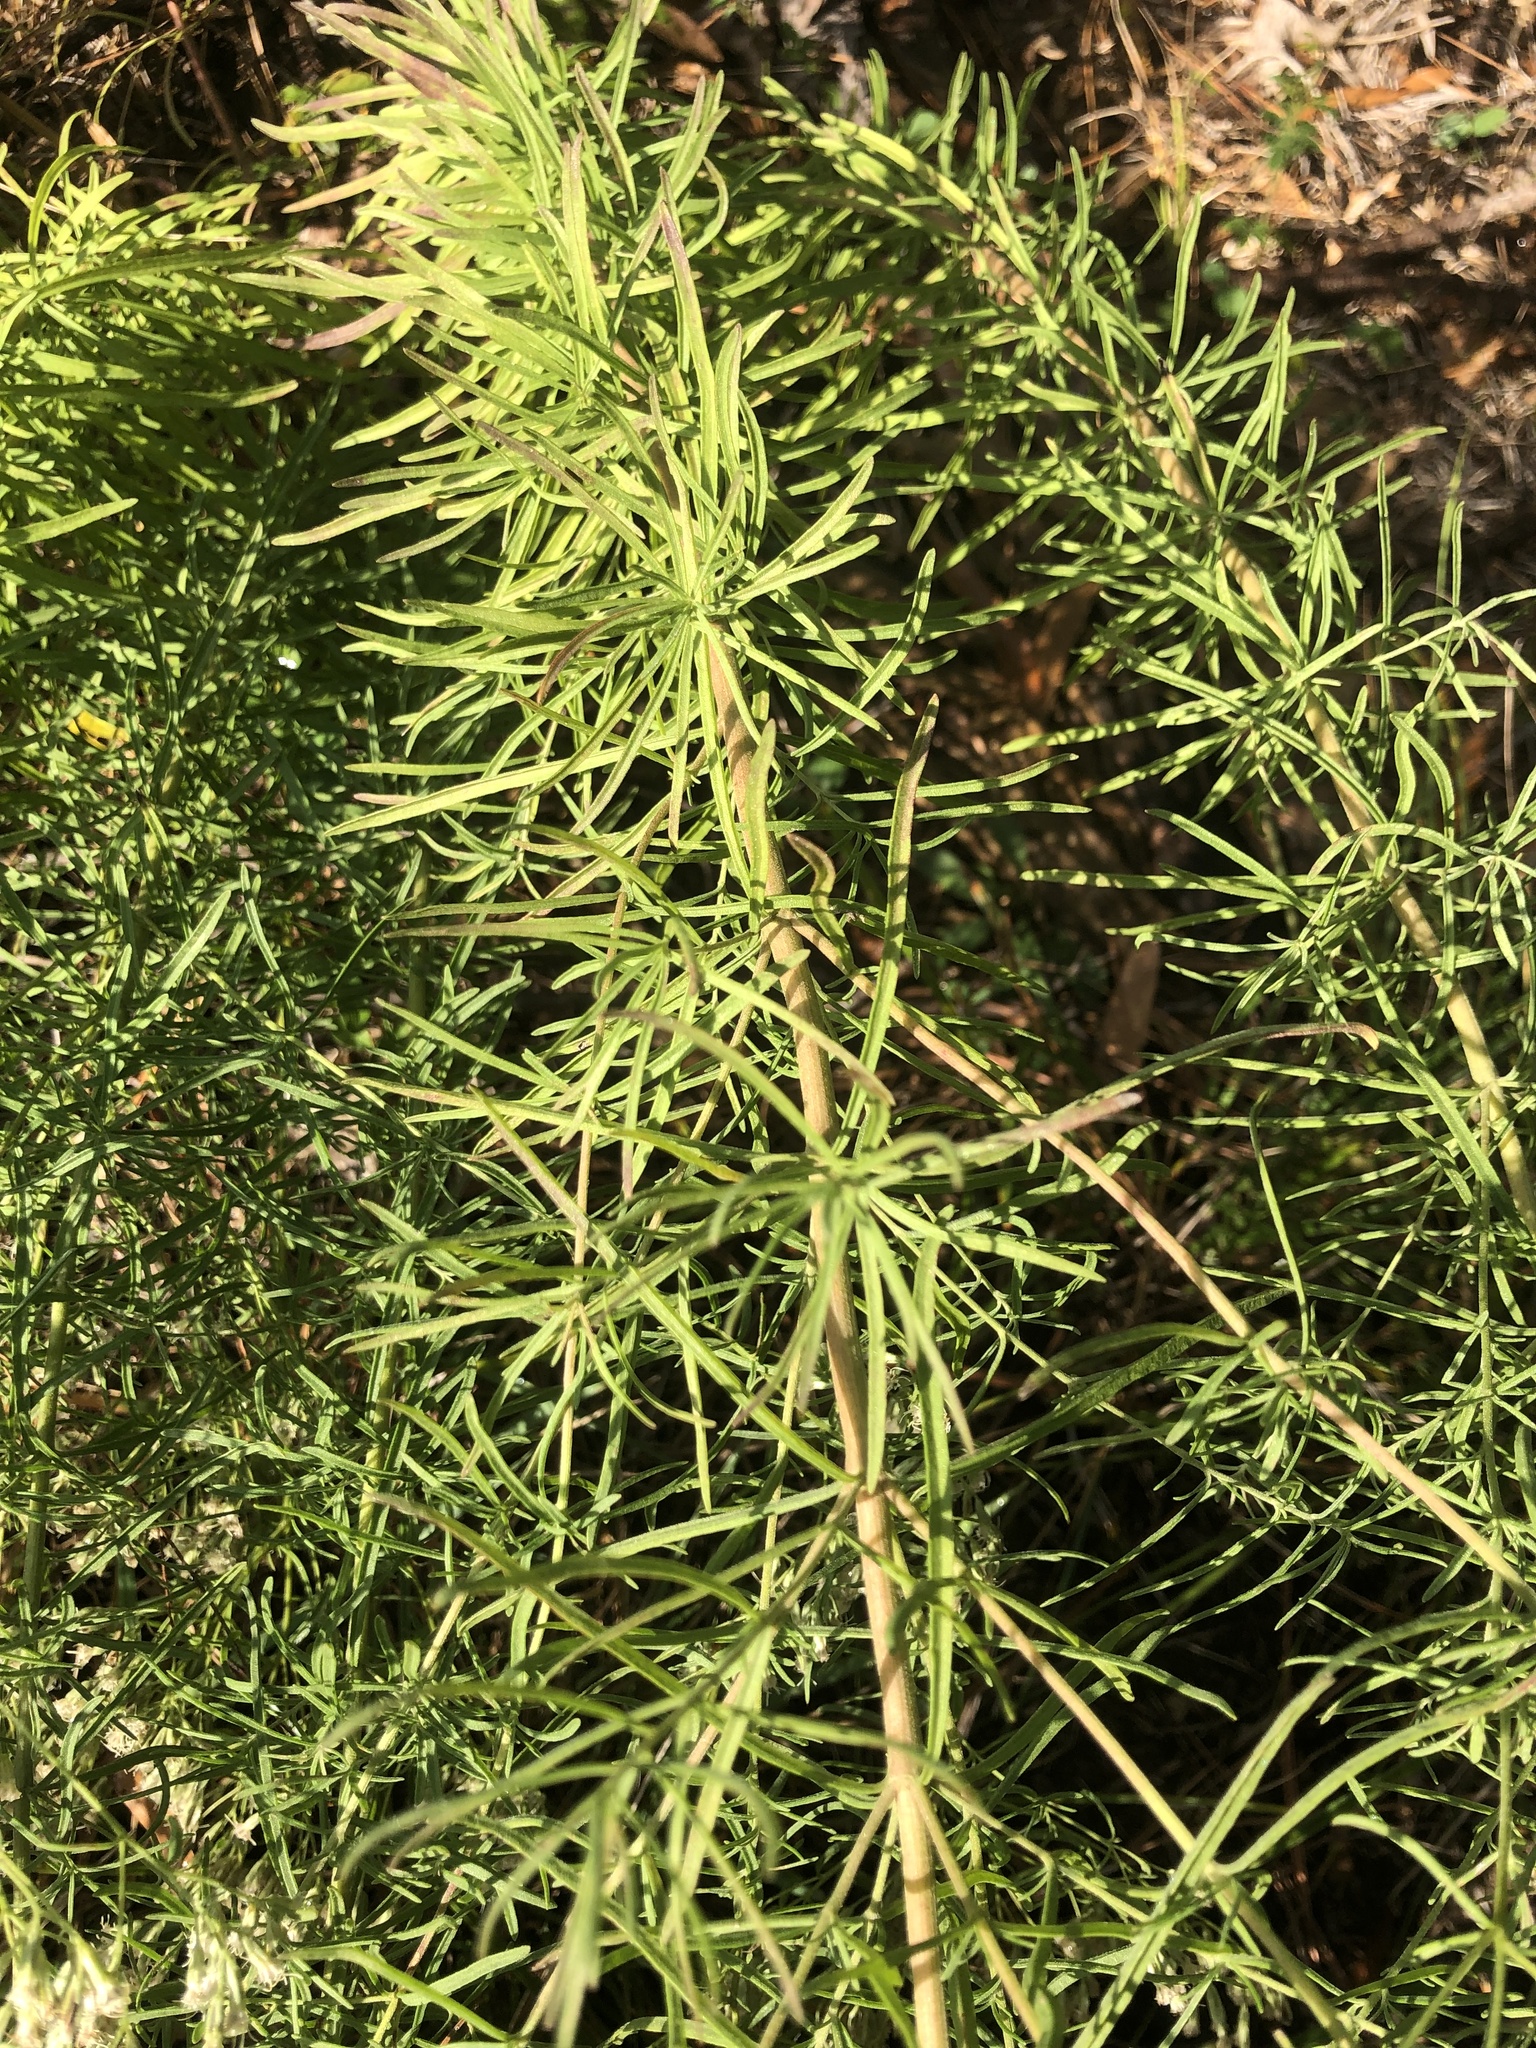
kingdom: Plantae
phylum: Tracheophyta
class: Magnoliopsida
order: Asterales
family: Asteraceae
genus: Eupatorium
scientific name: Eupatorium hyssopifolium
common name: Hyssop-leaf thoroughwort
